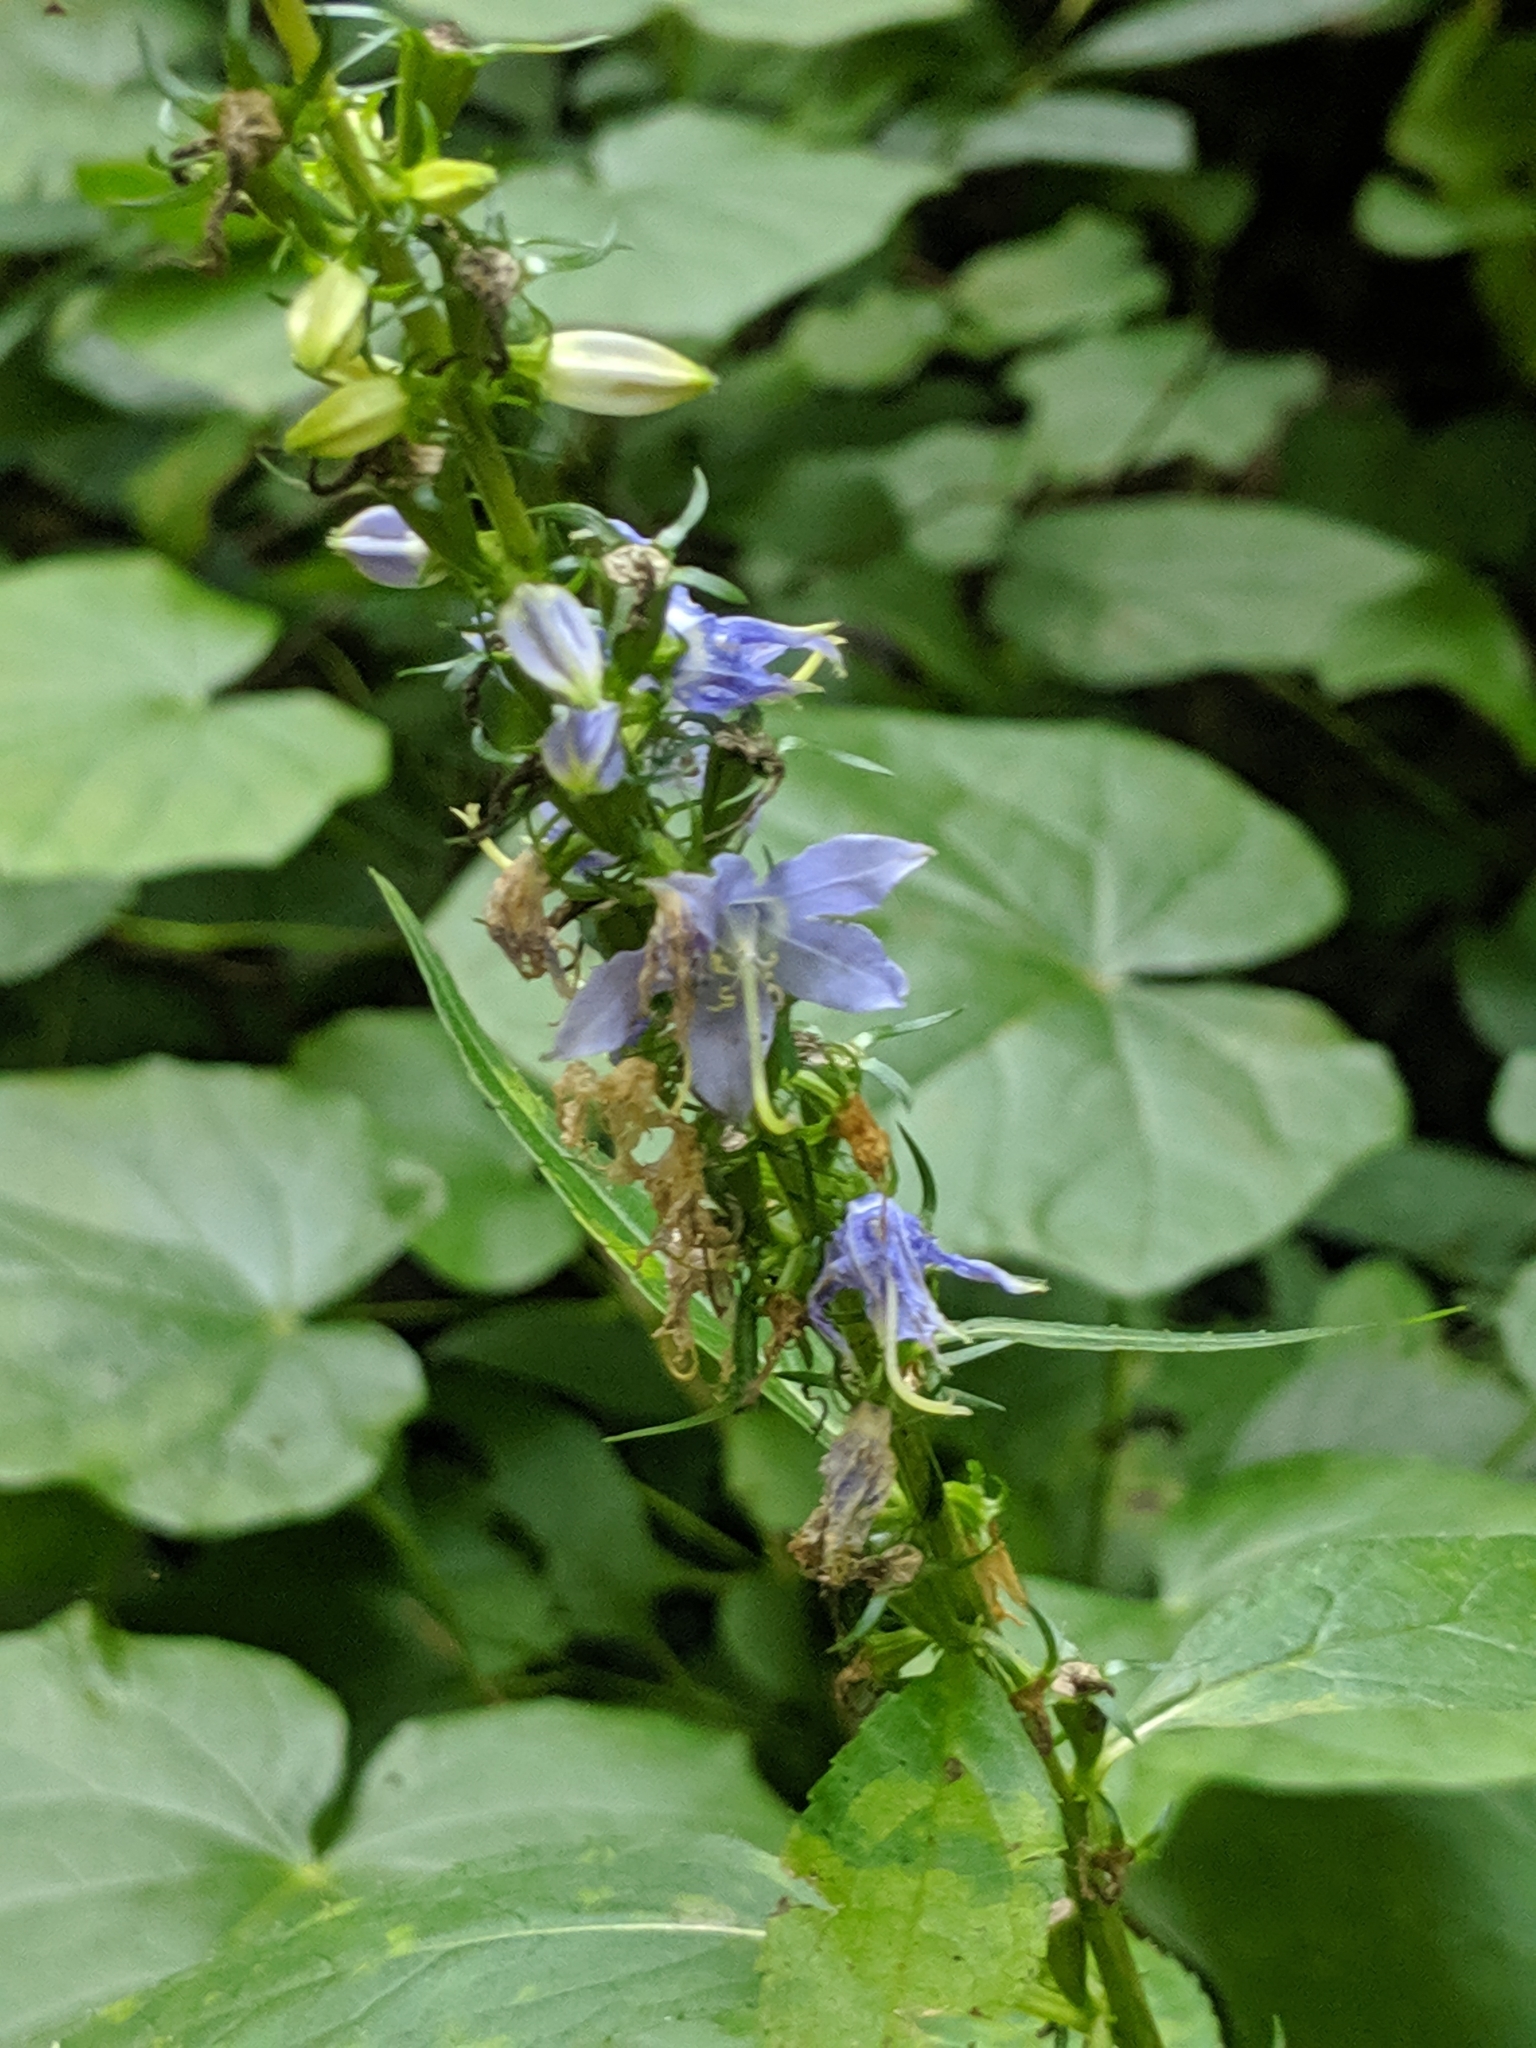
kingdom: Plantae
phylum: Tracheophyta
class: Magnoliopsida
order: Asterales
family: Campanulaceae
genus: Campanulastrum
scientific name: Campanulastrum americanum
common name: American bellflower
